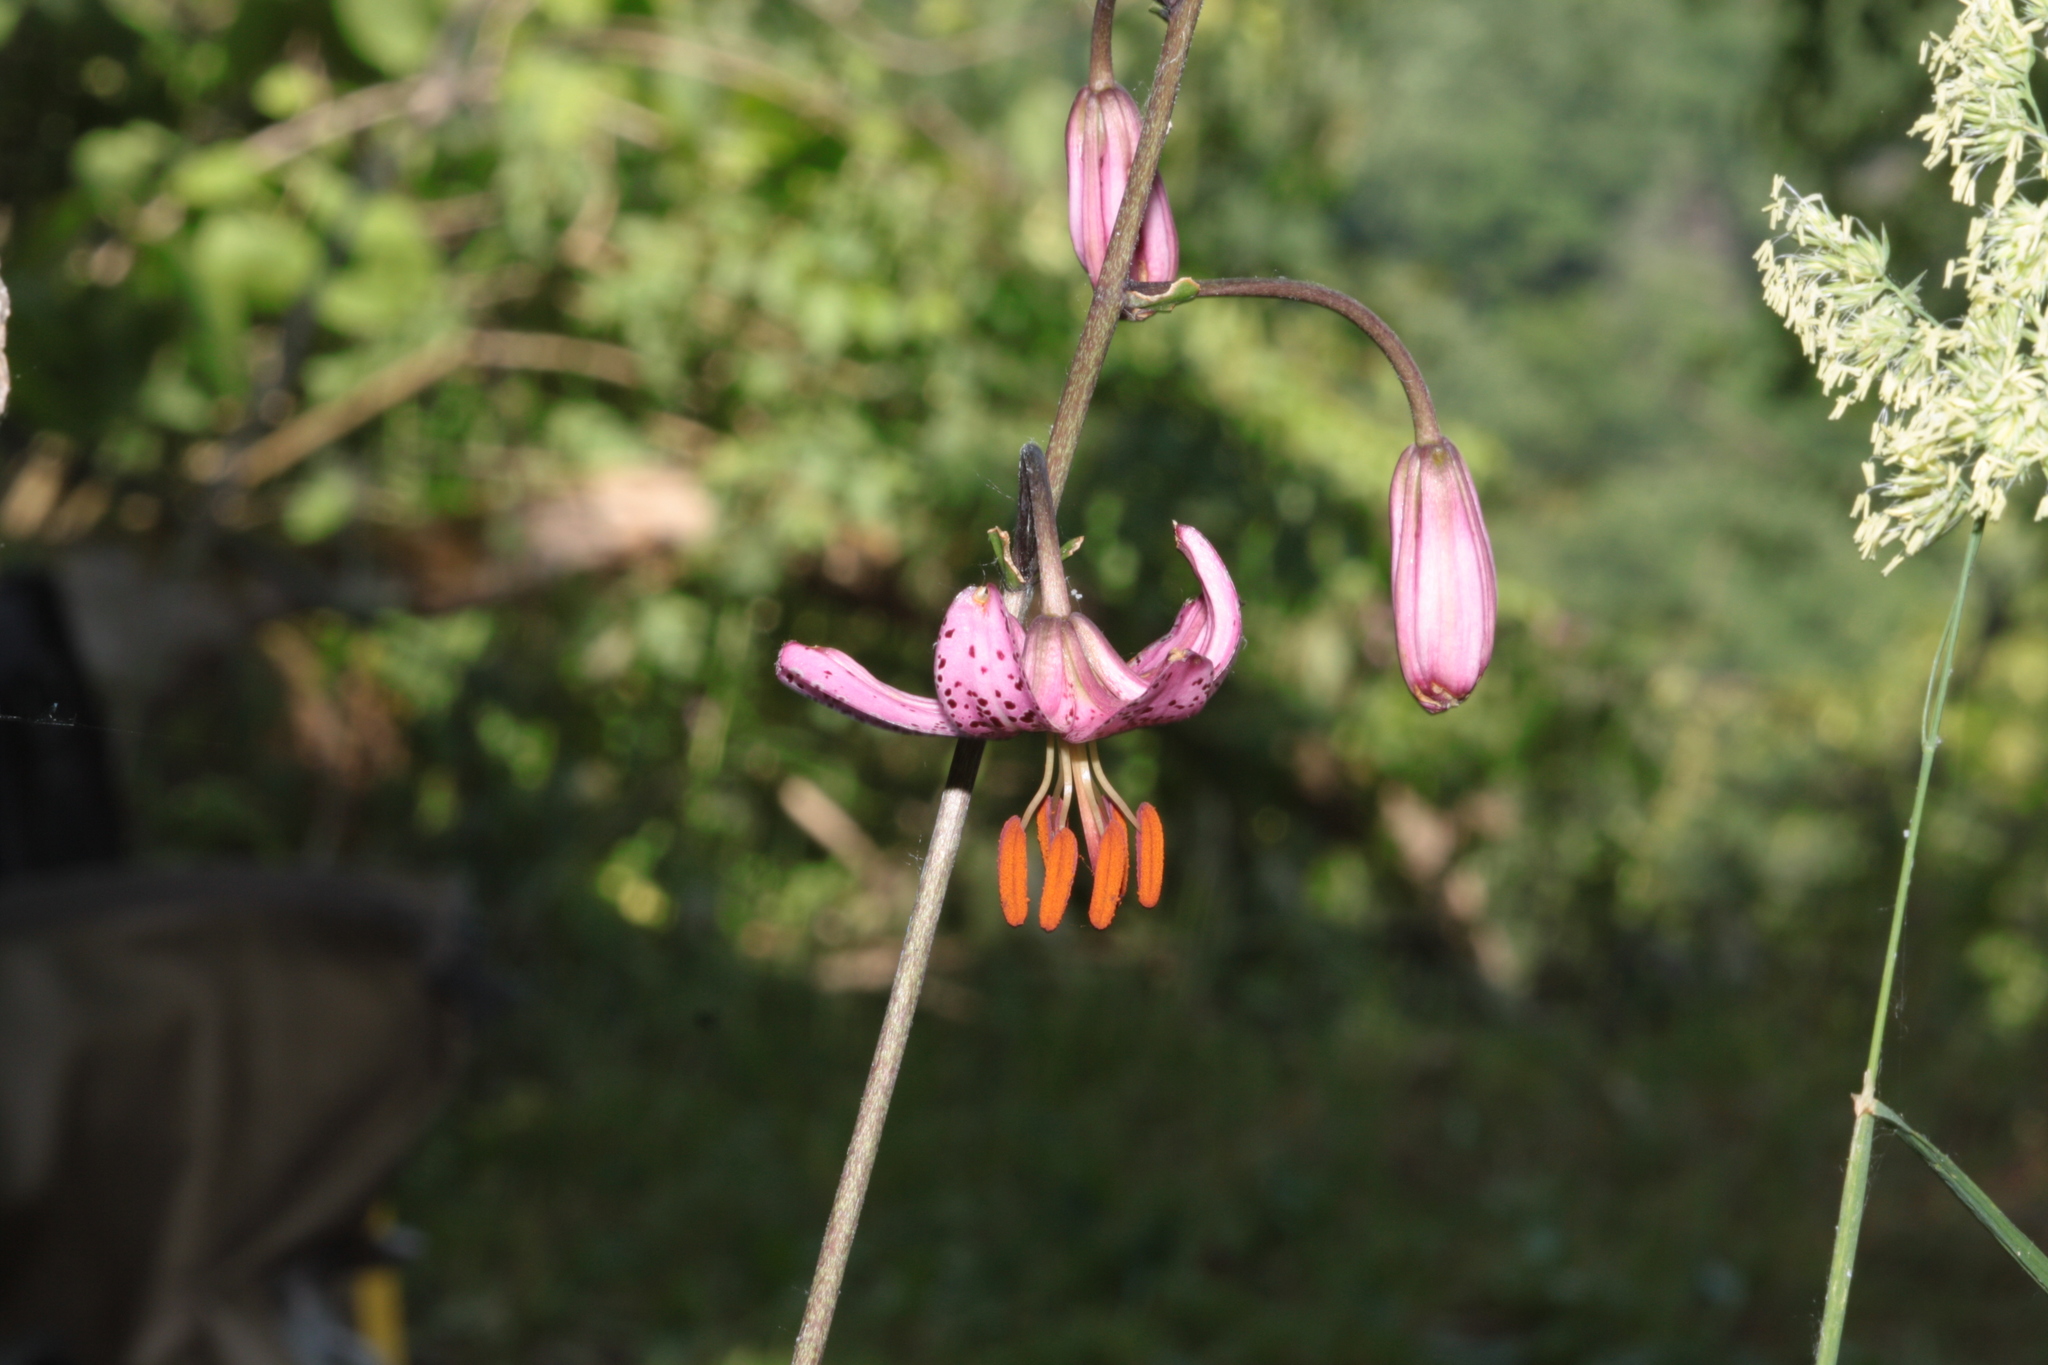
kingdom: Plantae
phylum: Tracheophyta
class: Liliopsida
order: Liliales
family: Liliaceae
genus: Lilium
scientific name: Lilium martagon
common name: Martagon lily
